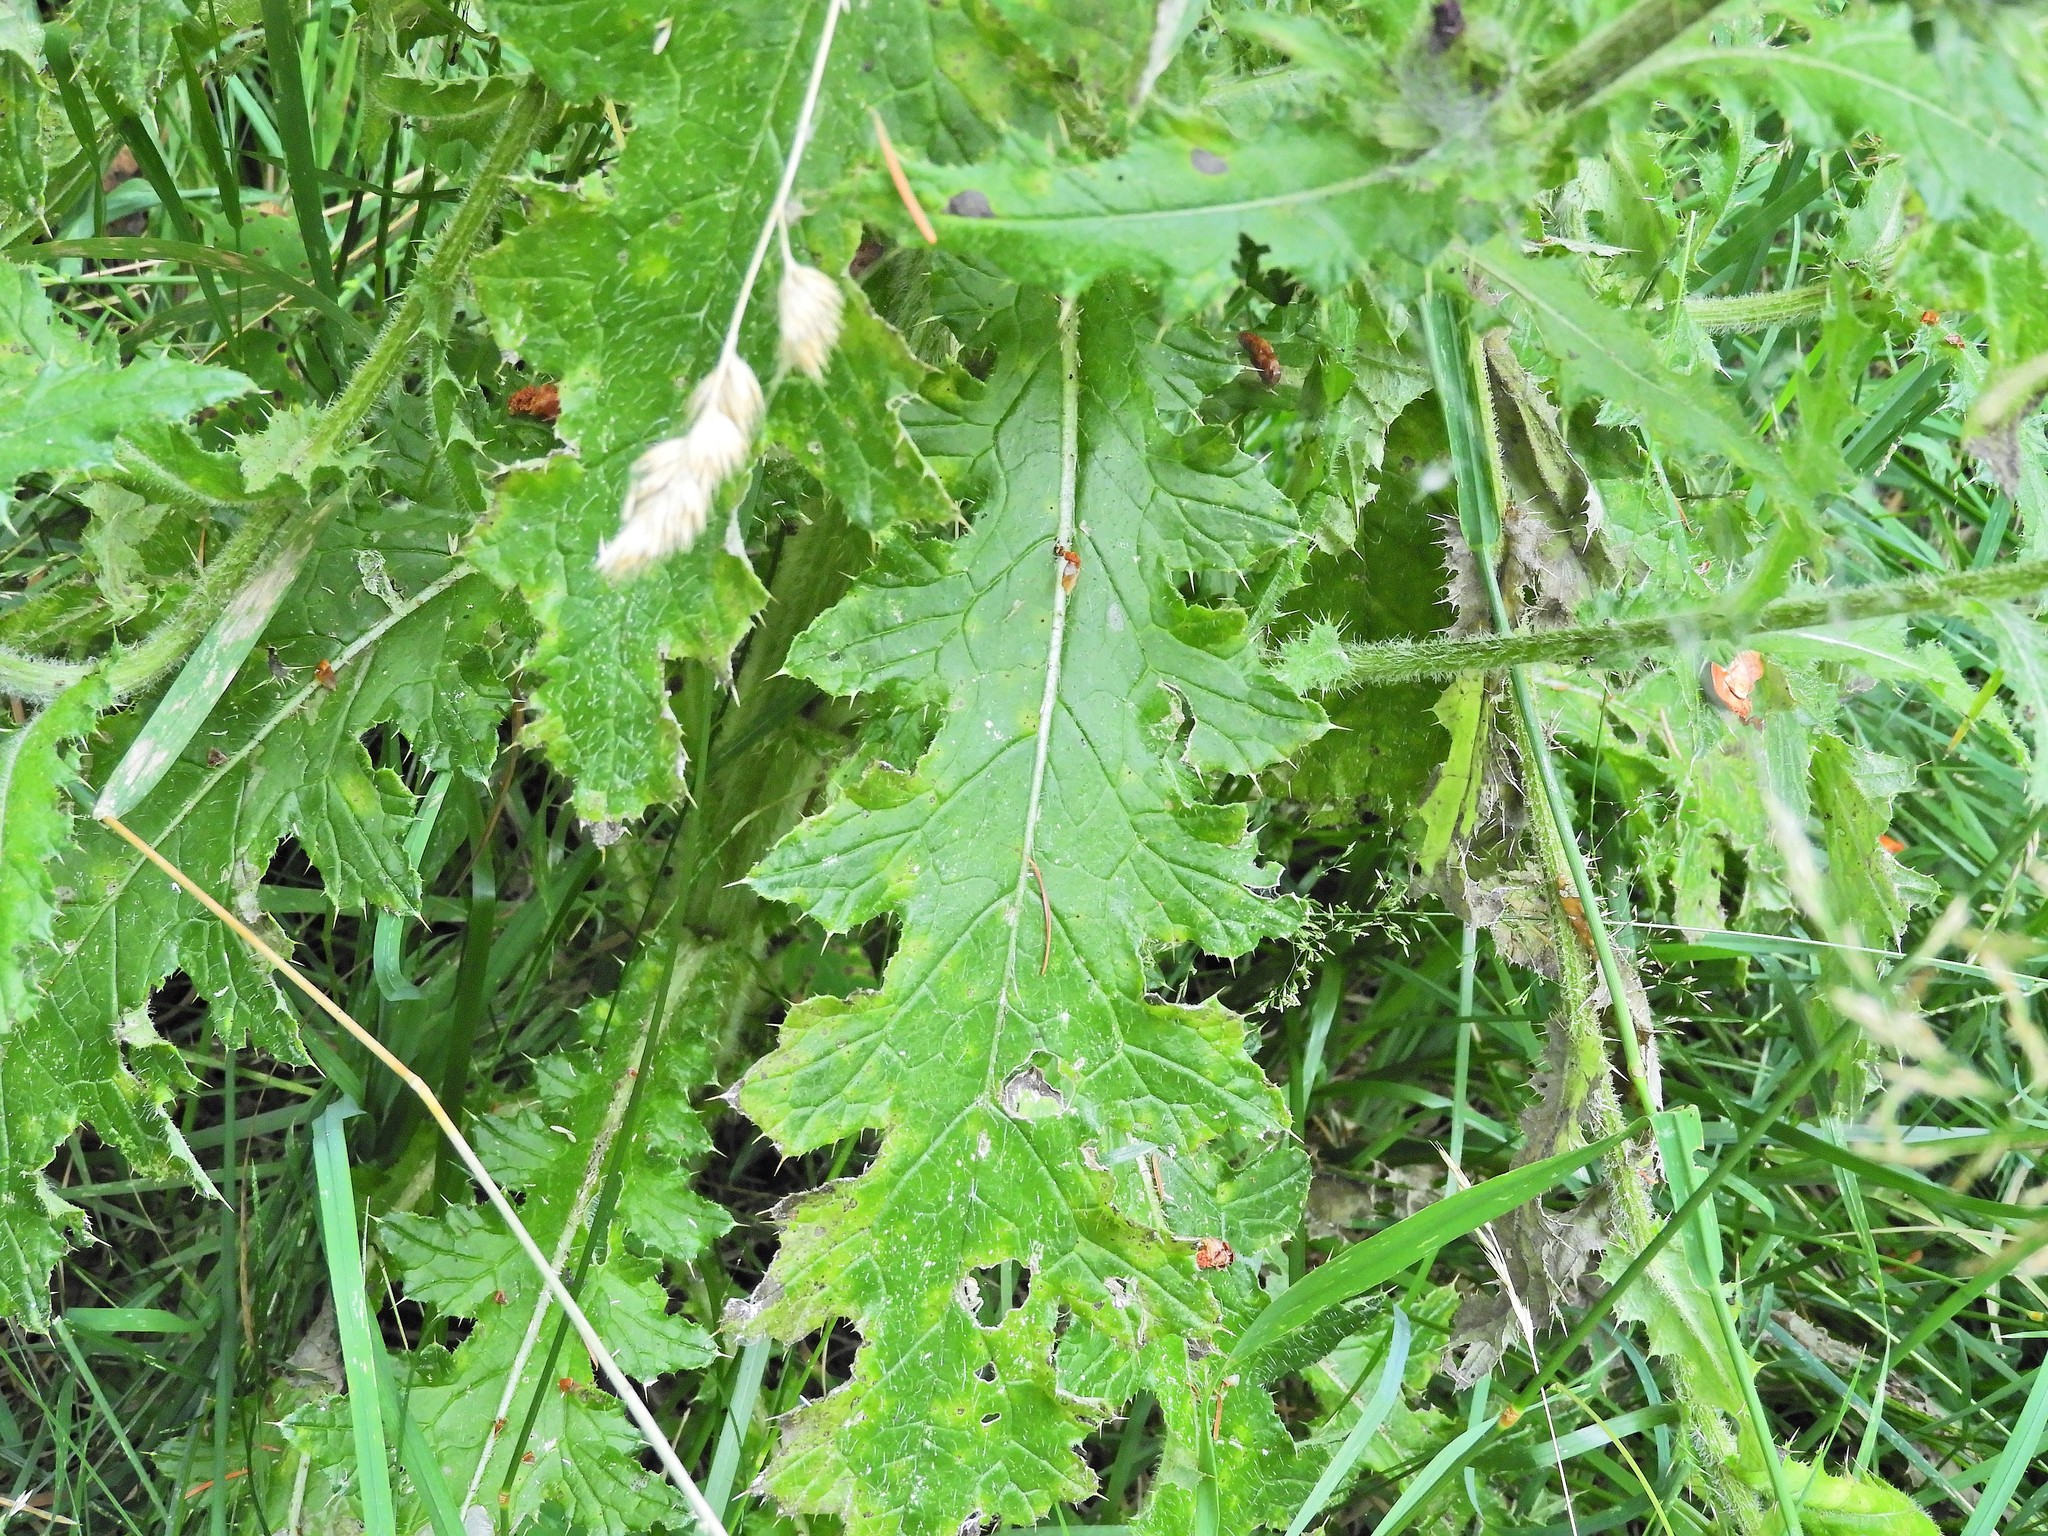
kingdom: Plantae
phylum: Tracheophyta
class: Magnoliopsida
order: Asterales
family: Asteraceae
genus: Cirsium
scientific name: Cirsium edule
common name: Indian thistle
